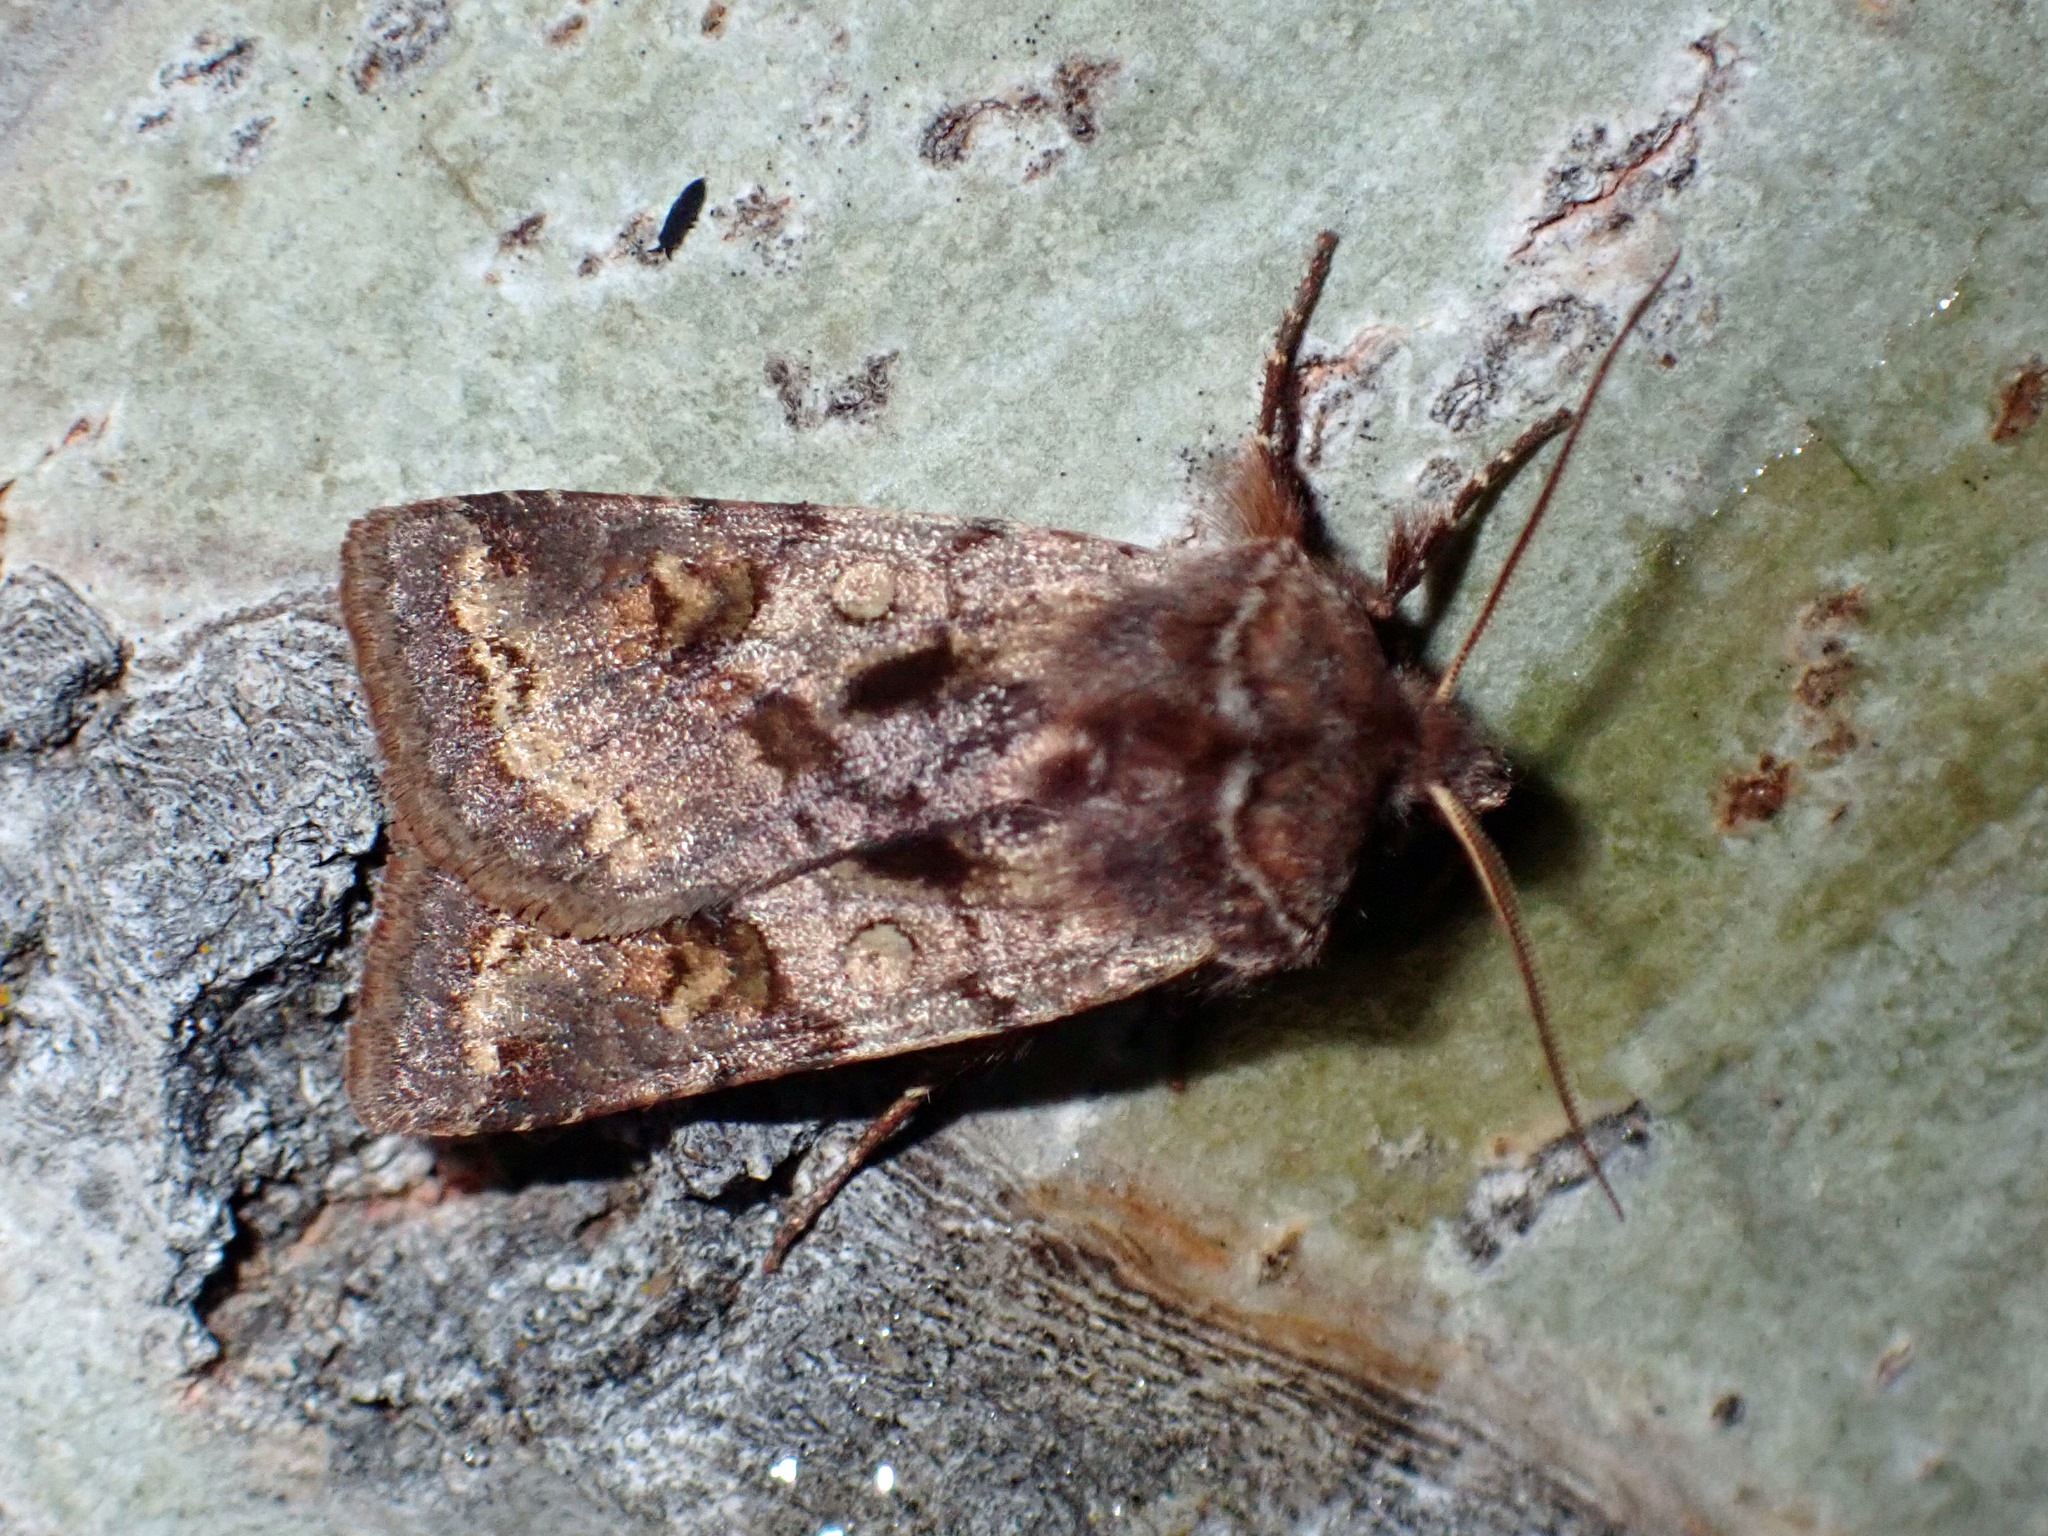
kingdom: Animalia
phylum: Arthropoda
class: Insecta
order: Lepidoptera
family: Noctuidae
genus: Cerastis
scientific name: Cerastis salicarum
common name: Willow dart
